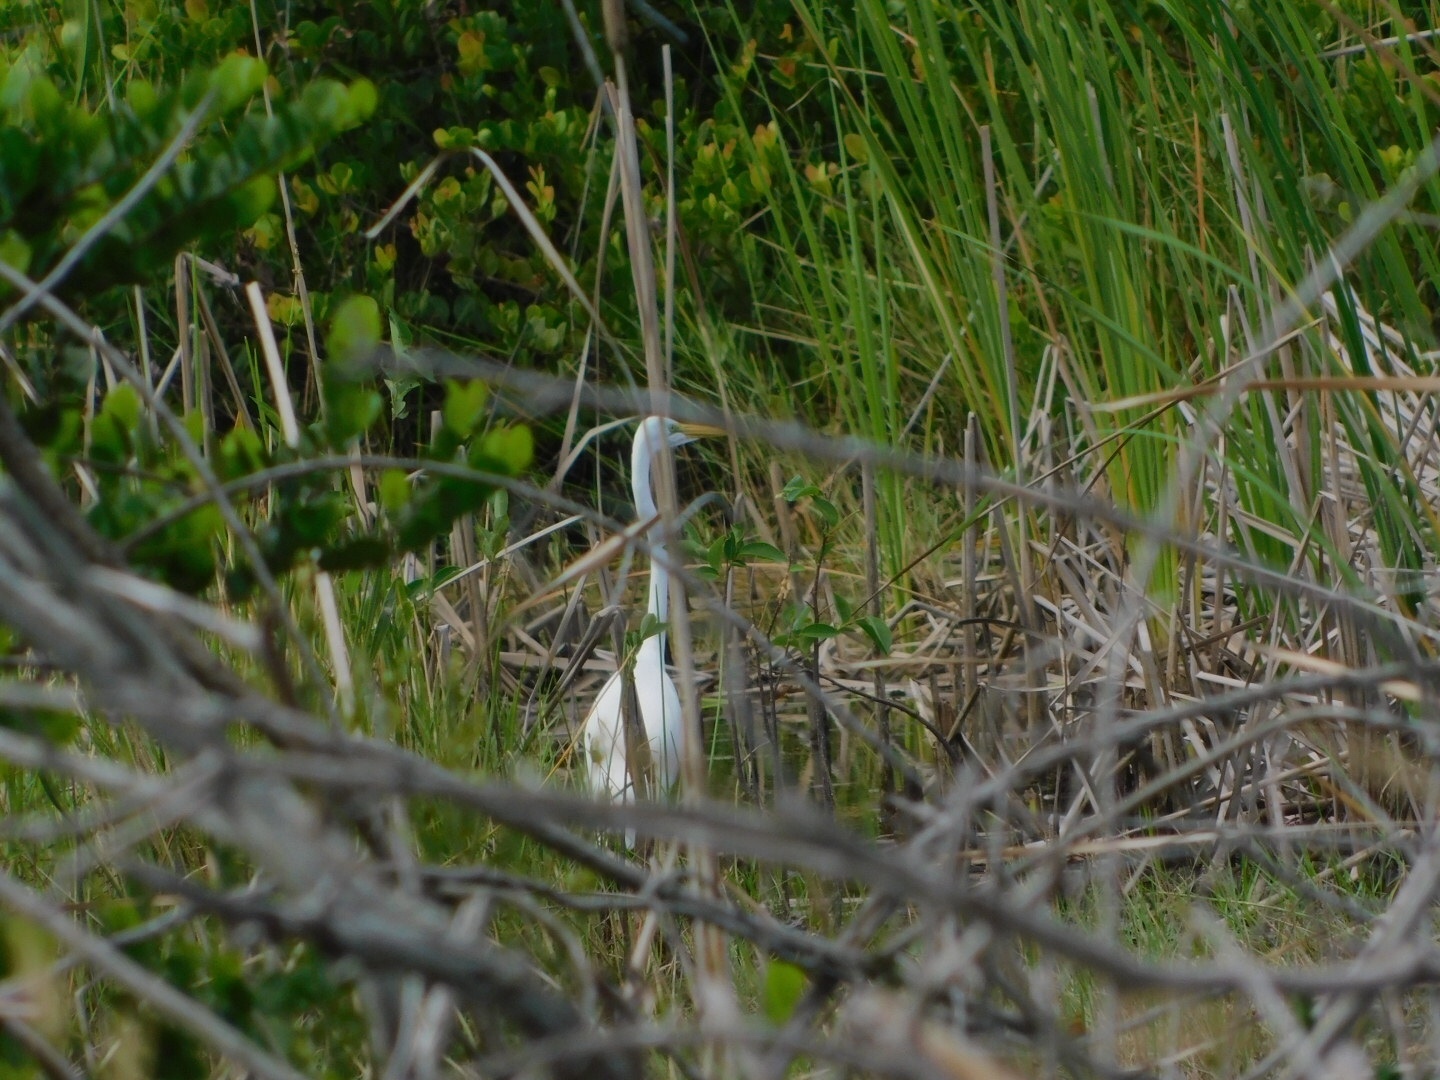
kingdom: Animalia
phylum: Chordata
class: Aves
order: Pelecaniformes
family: Ardeidae
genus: Ardea
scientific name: Ardea alba
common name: Great egret
